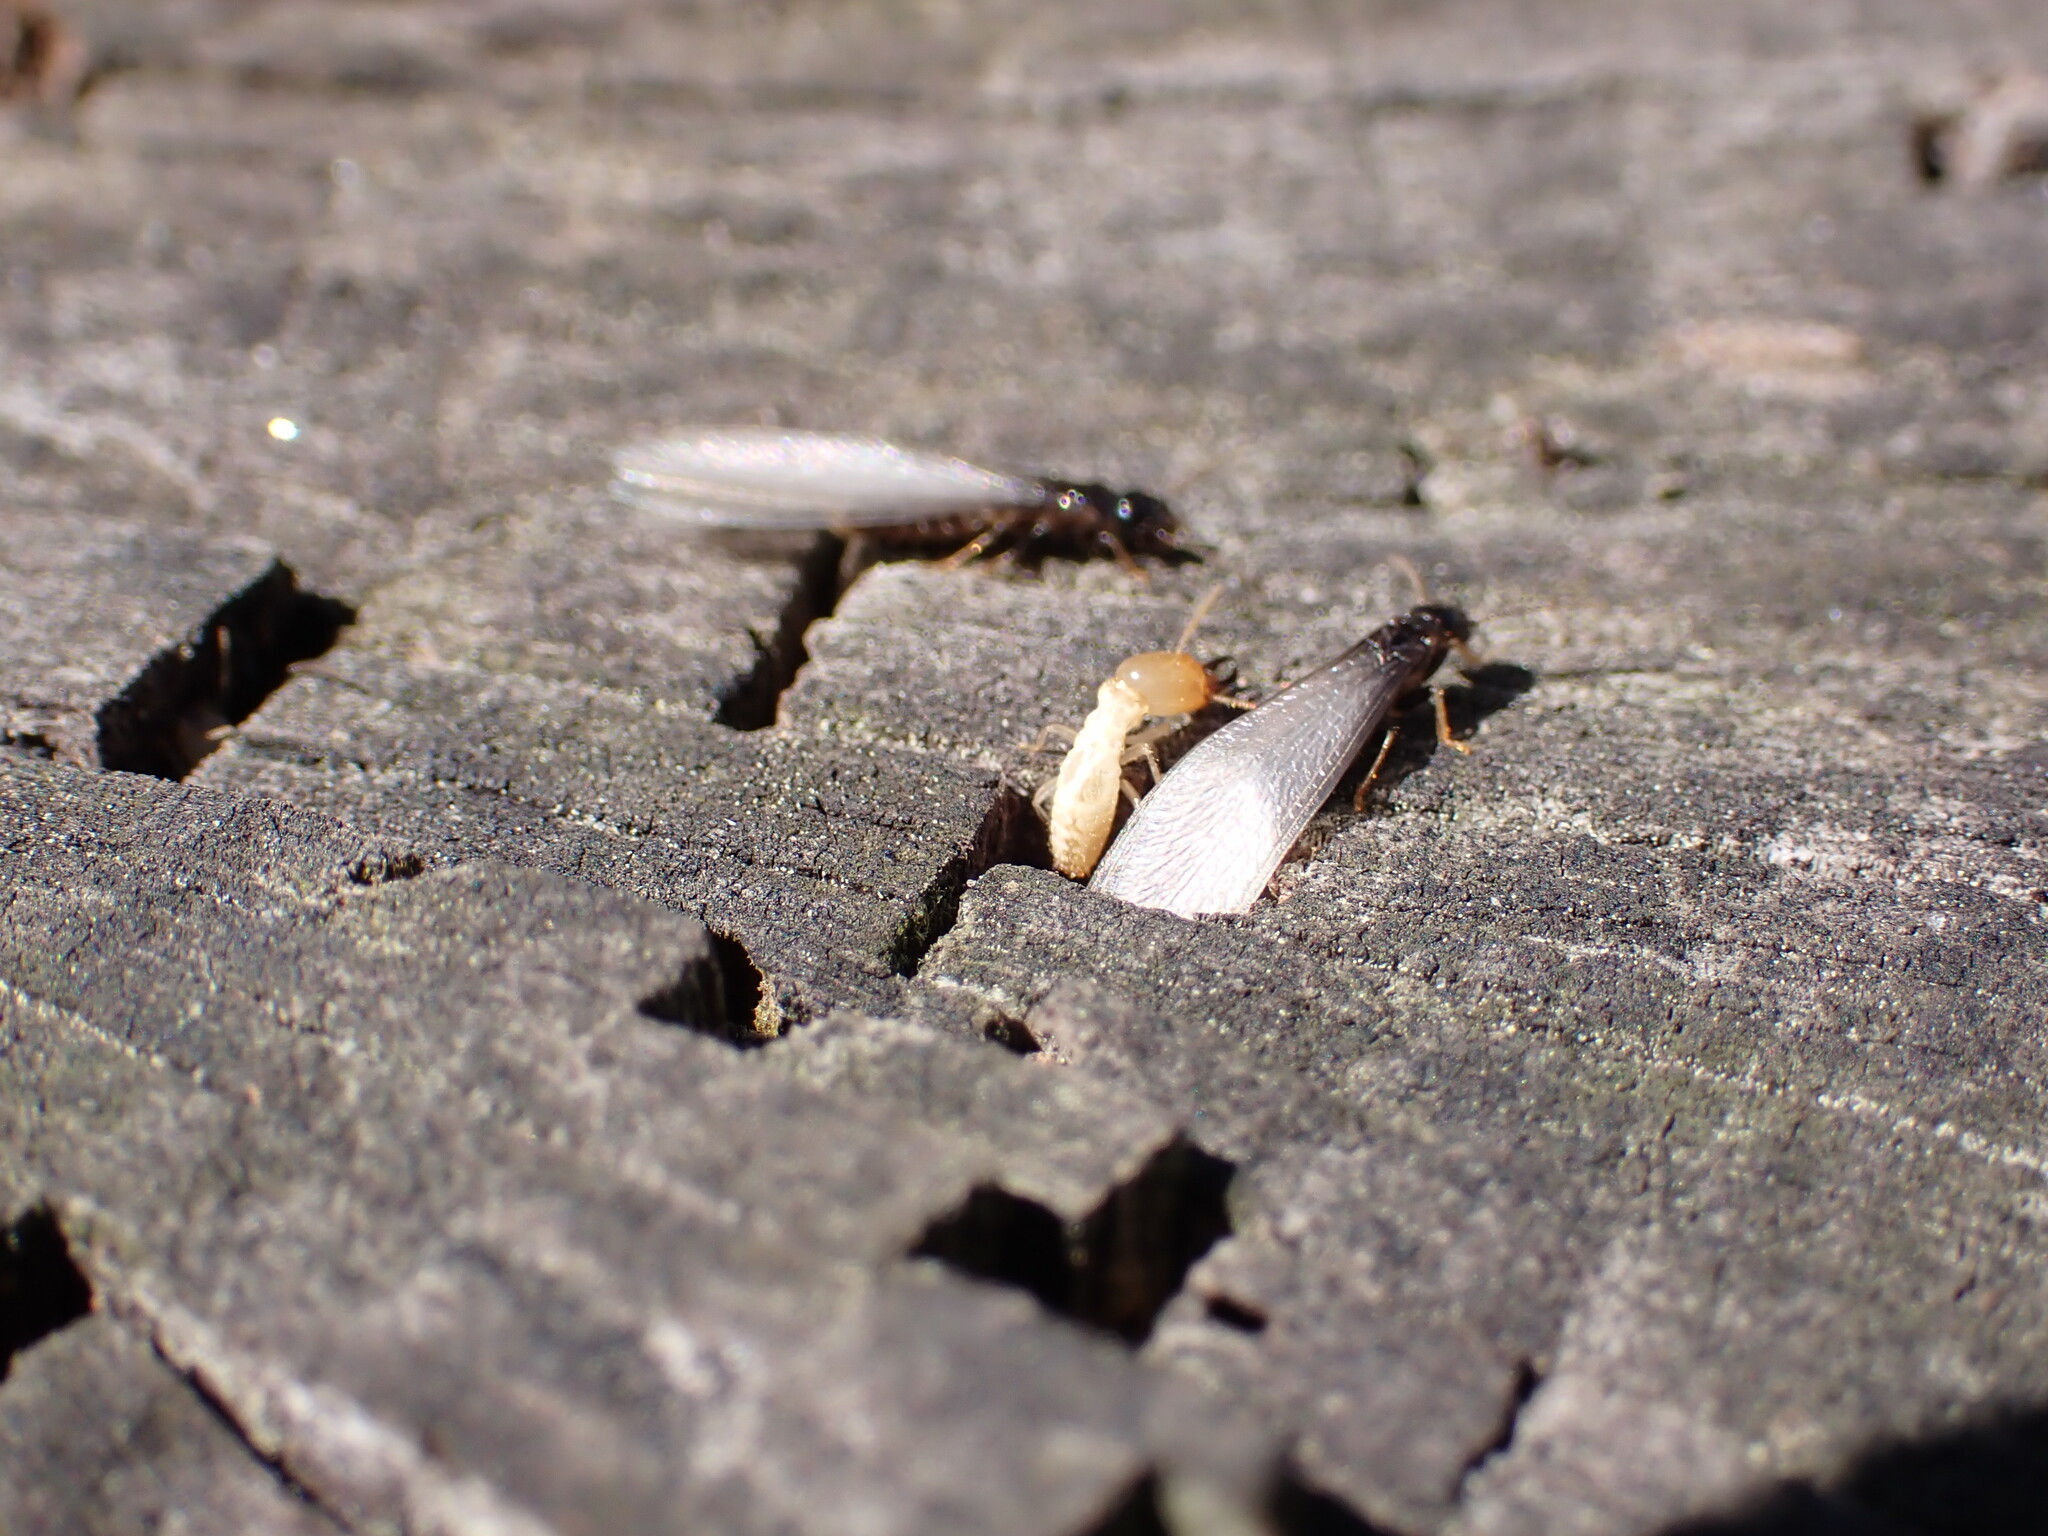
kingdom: Animalia
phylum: Arthropoda
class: Insecta
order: Blattodea
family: Rhinotermitidae
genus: Reticulitermes
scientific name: Reticulitermes flavipes
